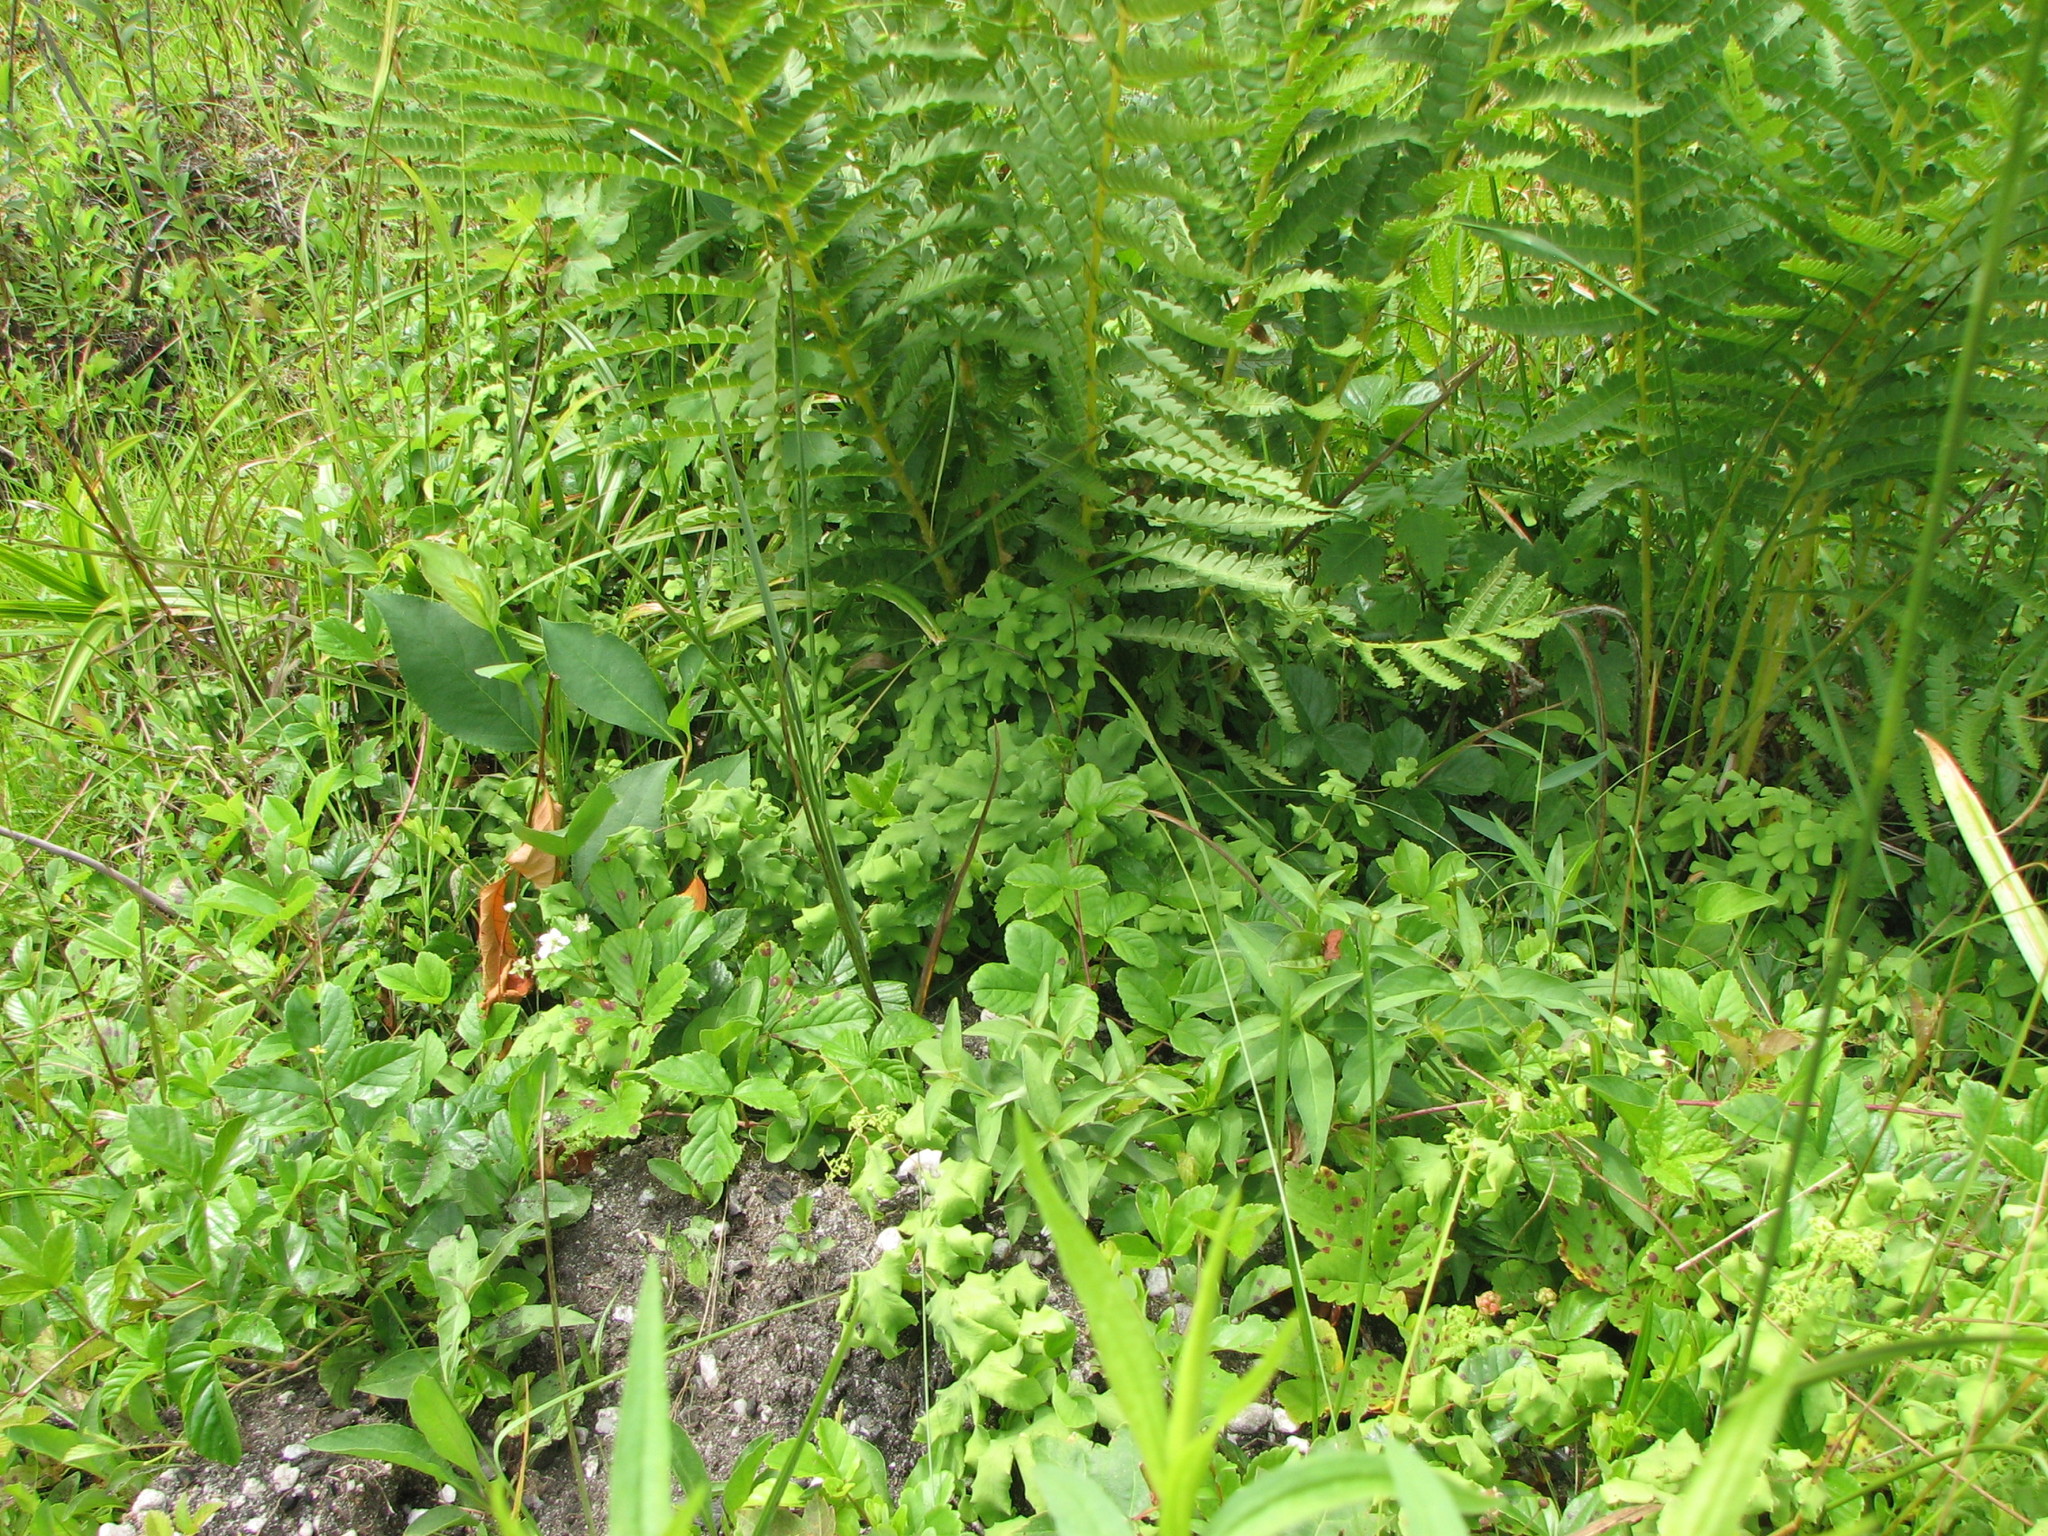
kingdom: Plantae
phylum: Tracheophyta
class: Polypodiopsida
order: Schizaeales
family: Lygodiaceae
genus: Lygodium
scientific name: Lygodium palmatum
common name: American climbing fern
